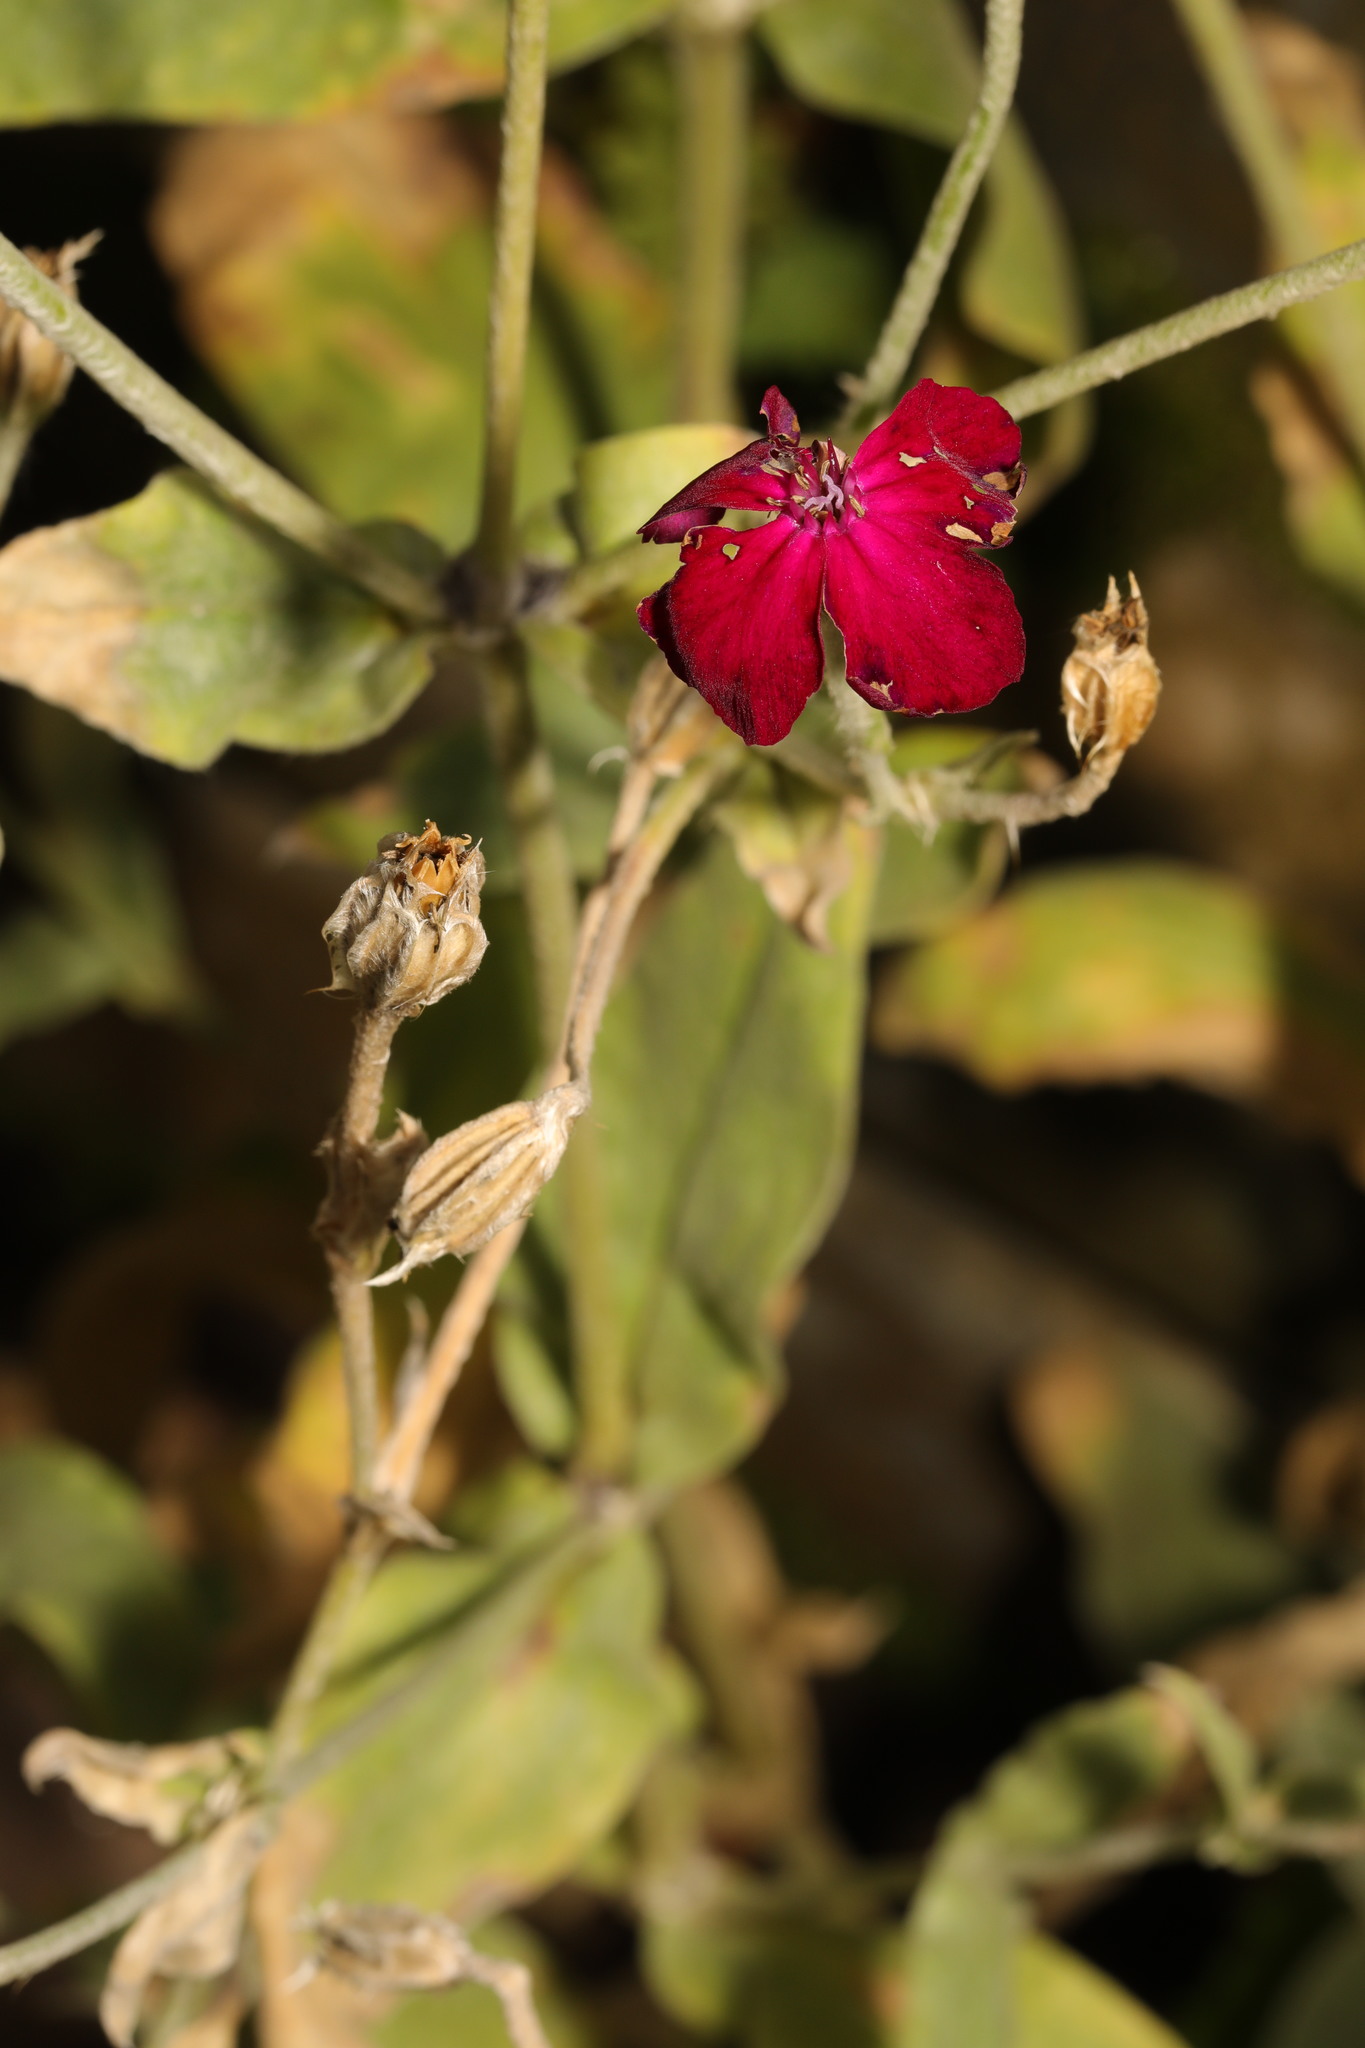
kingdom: Plantae
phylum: Tracheophyta
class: Magnoliopsida
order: Caryophyllales
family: Caryophyllaceae
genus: Silene
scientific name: Silene coronaria
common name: Rose campion
